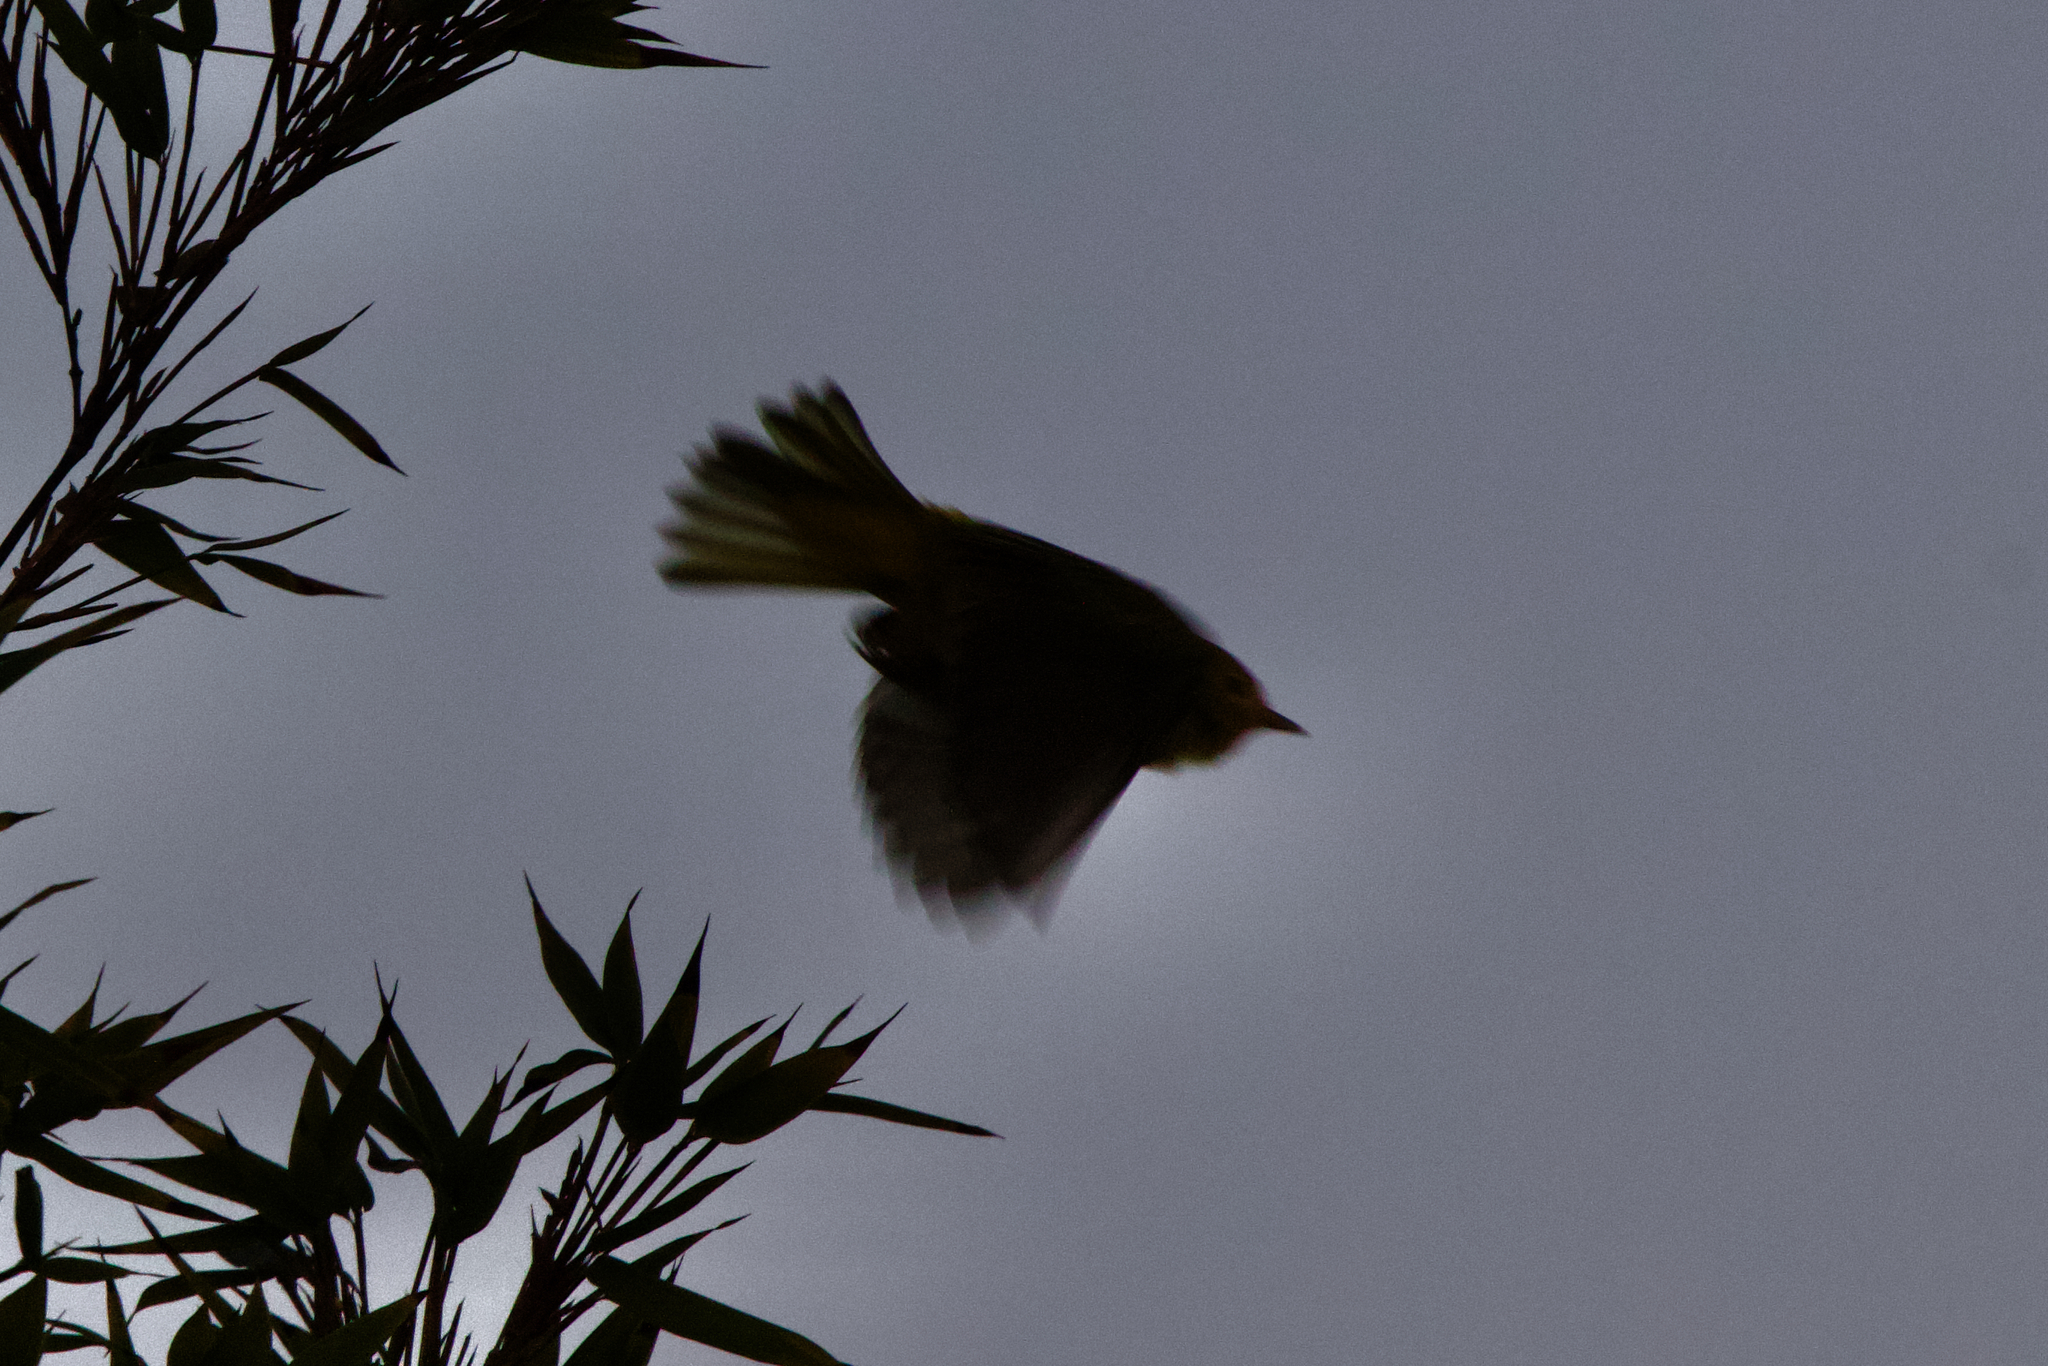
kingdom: Animalia
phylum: Chordata
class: Aves
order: Passeriformes
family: Parulidae
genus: Setophaga
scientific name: Setophaga petechia
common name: Yellow warbler
